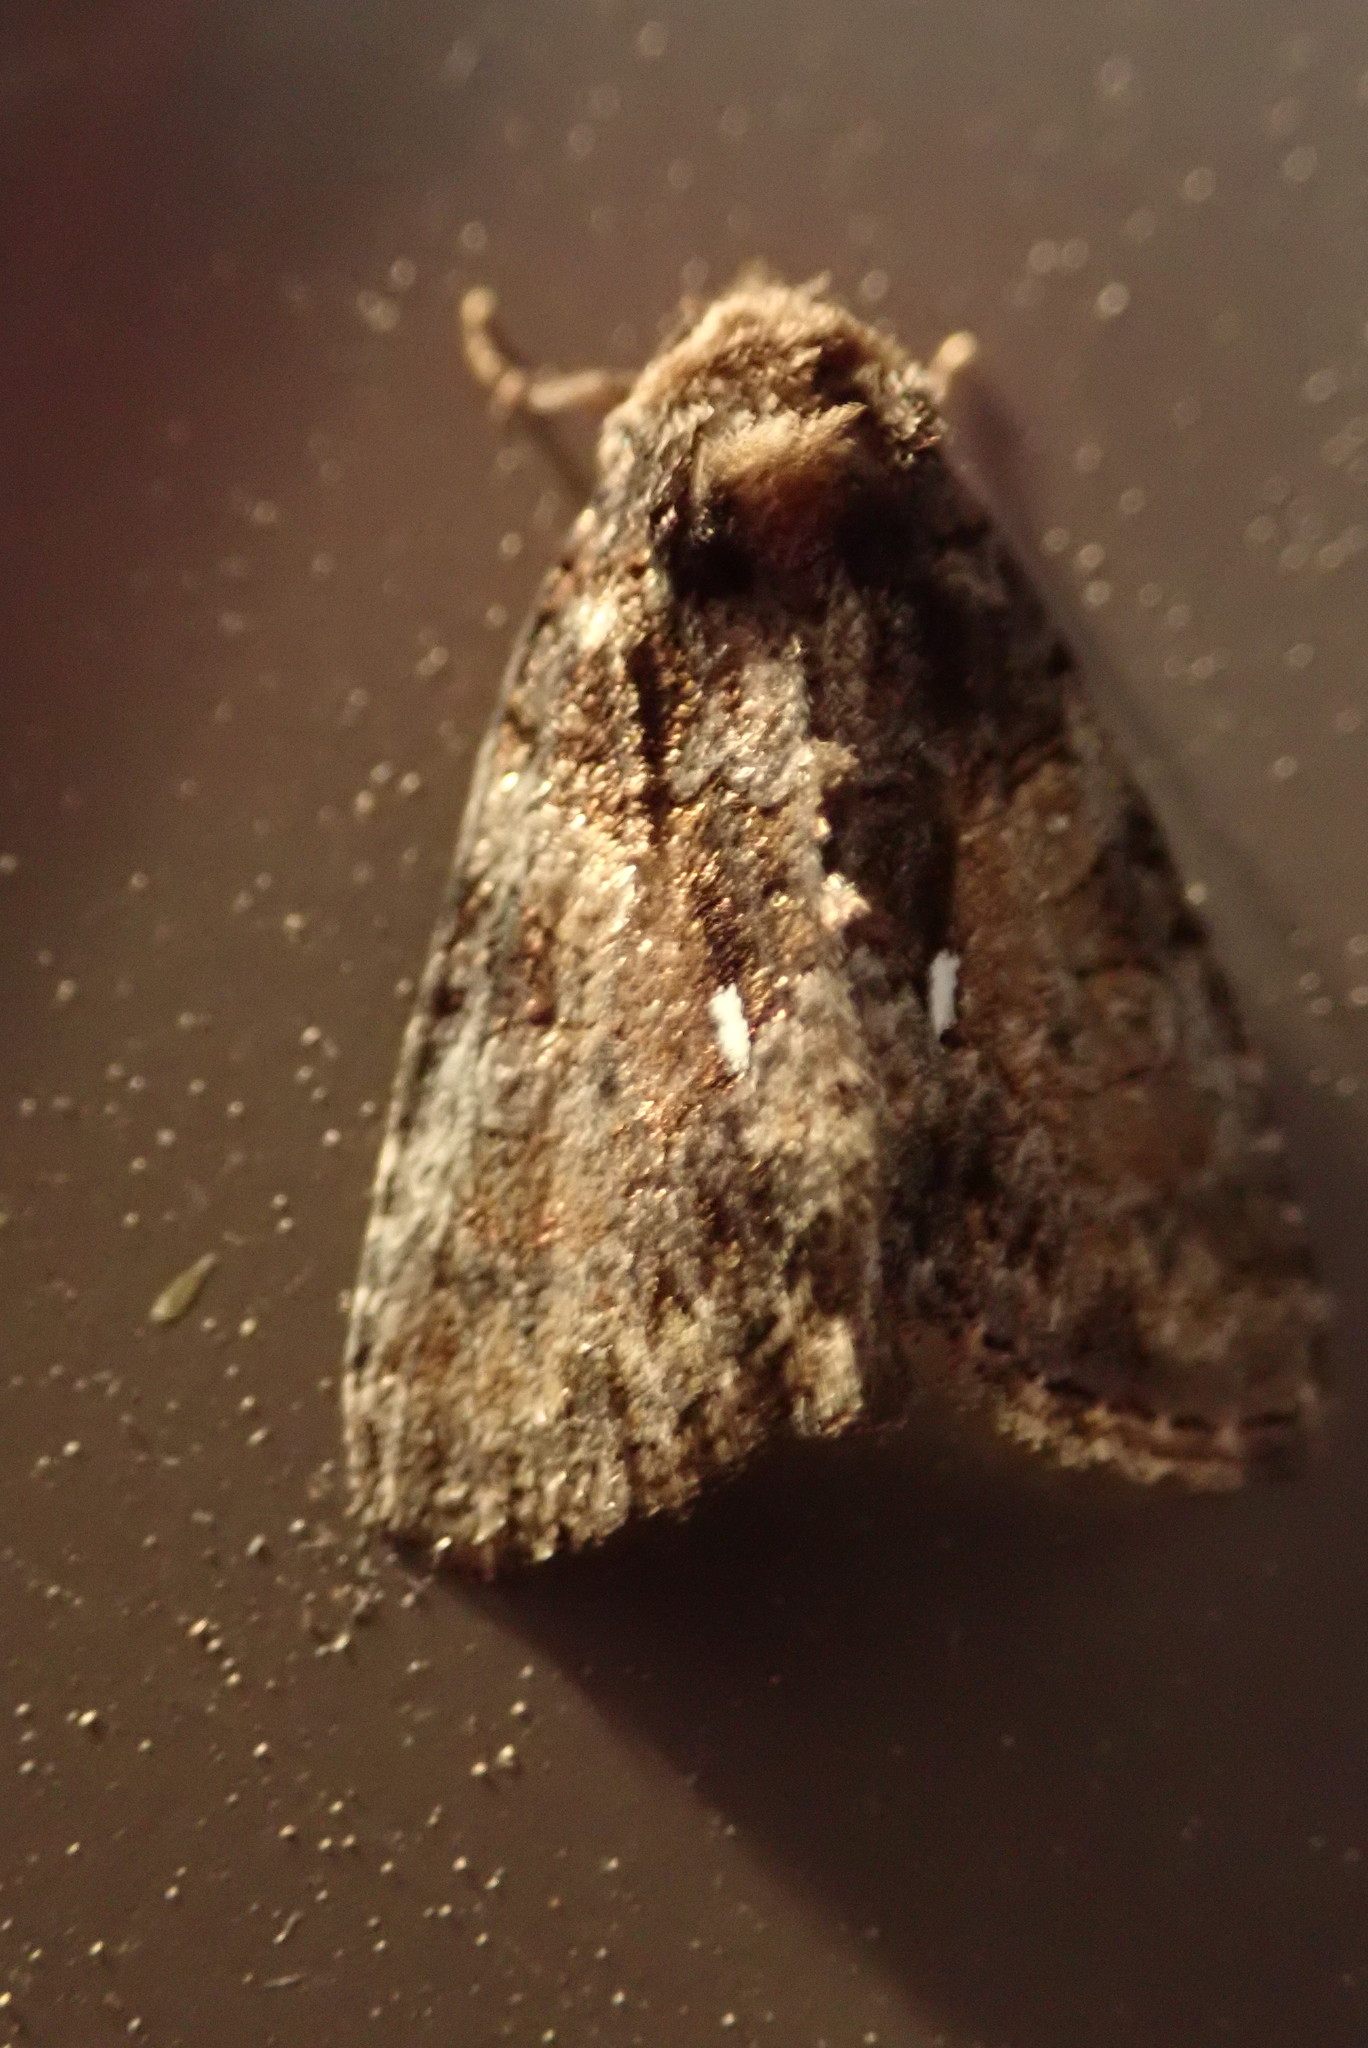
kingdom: Animalia
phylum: Arthropoda
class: Insecta
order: Lepidoptera
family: Noctuidae
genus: Chytonix
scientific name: Chytonix palliatricula
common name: Cloaked marvel
